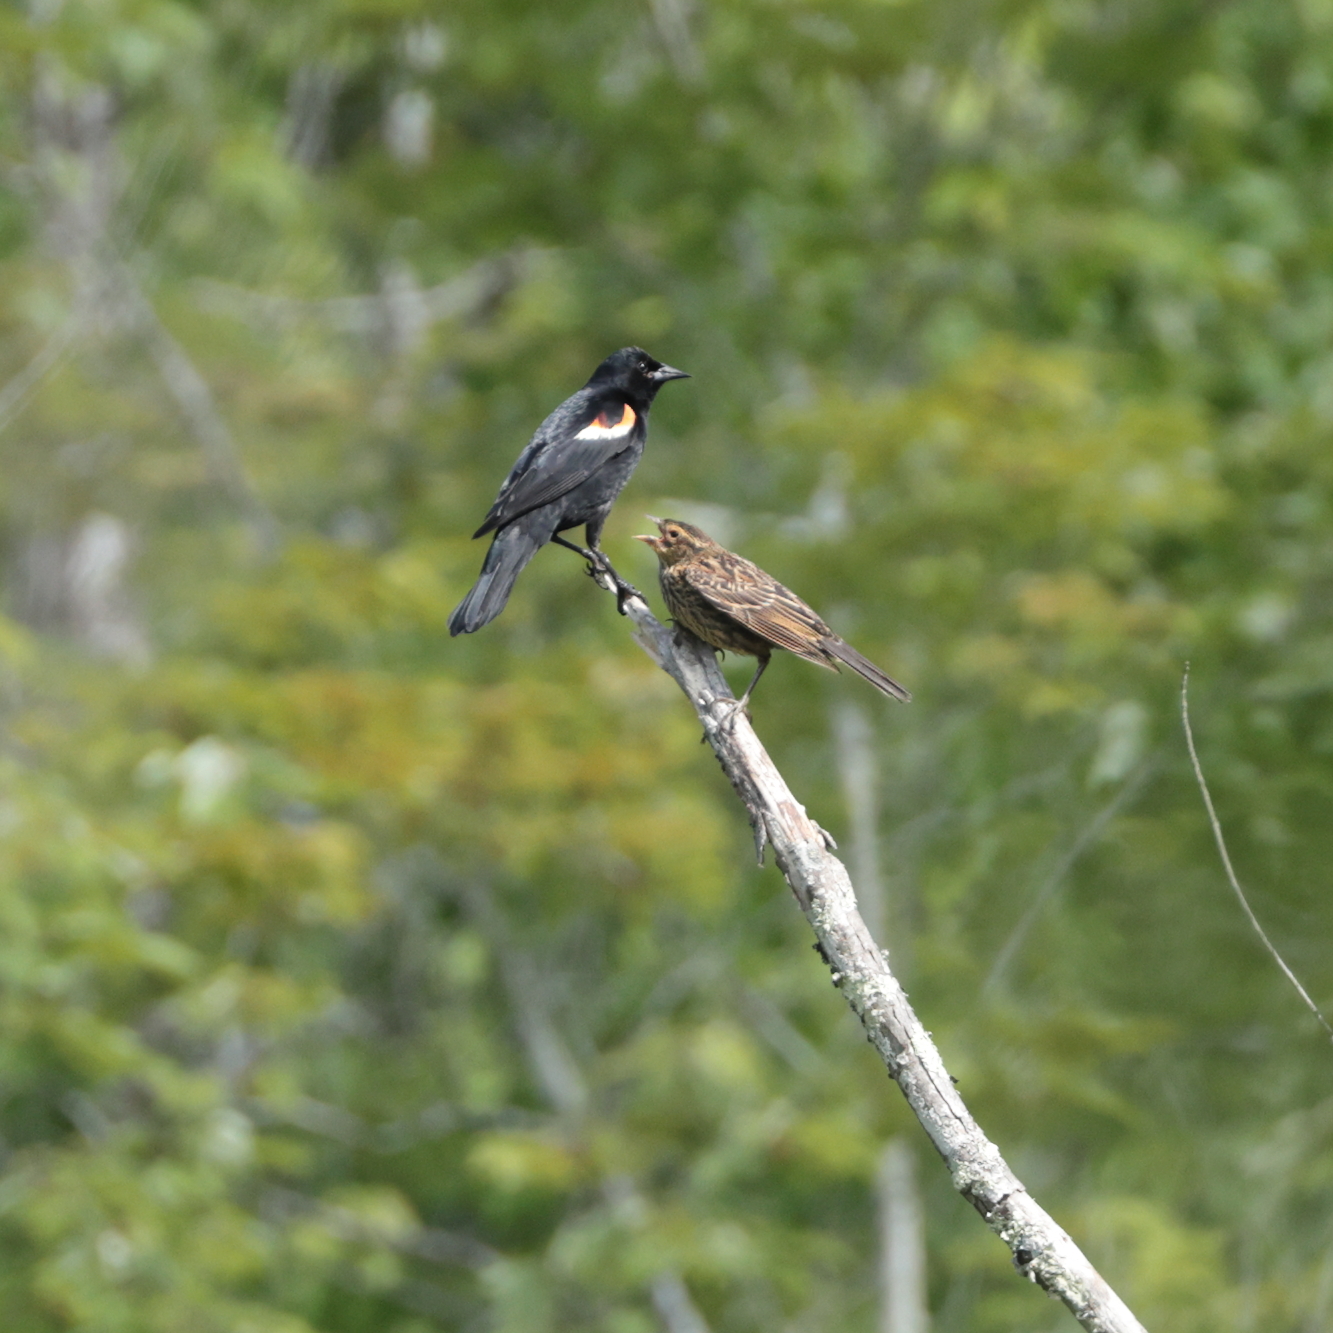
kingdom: Animalia
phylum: Chordata
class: Aves
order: Passeriformes
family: Icteridae
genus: Agelaius
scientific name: Agelaius phoeniceus
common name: Red-winged blackbird
